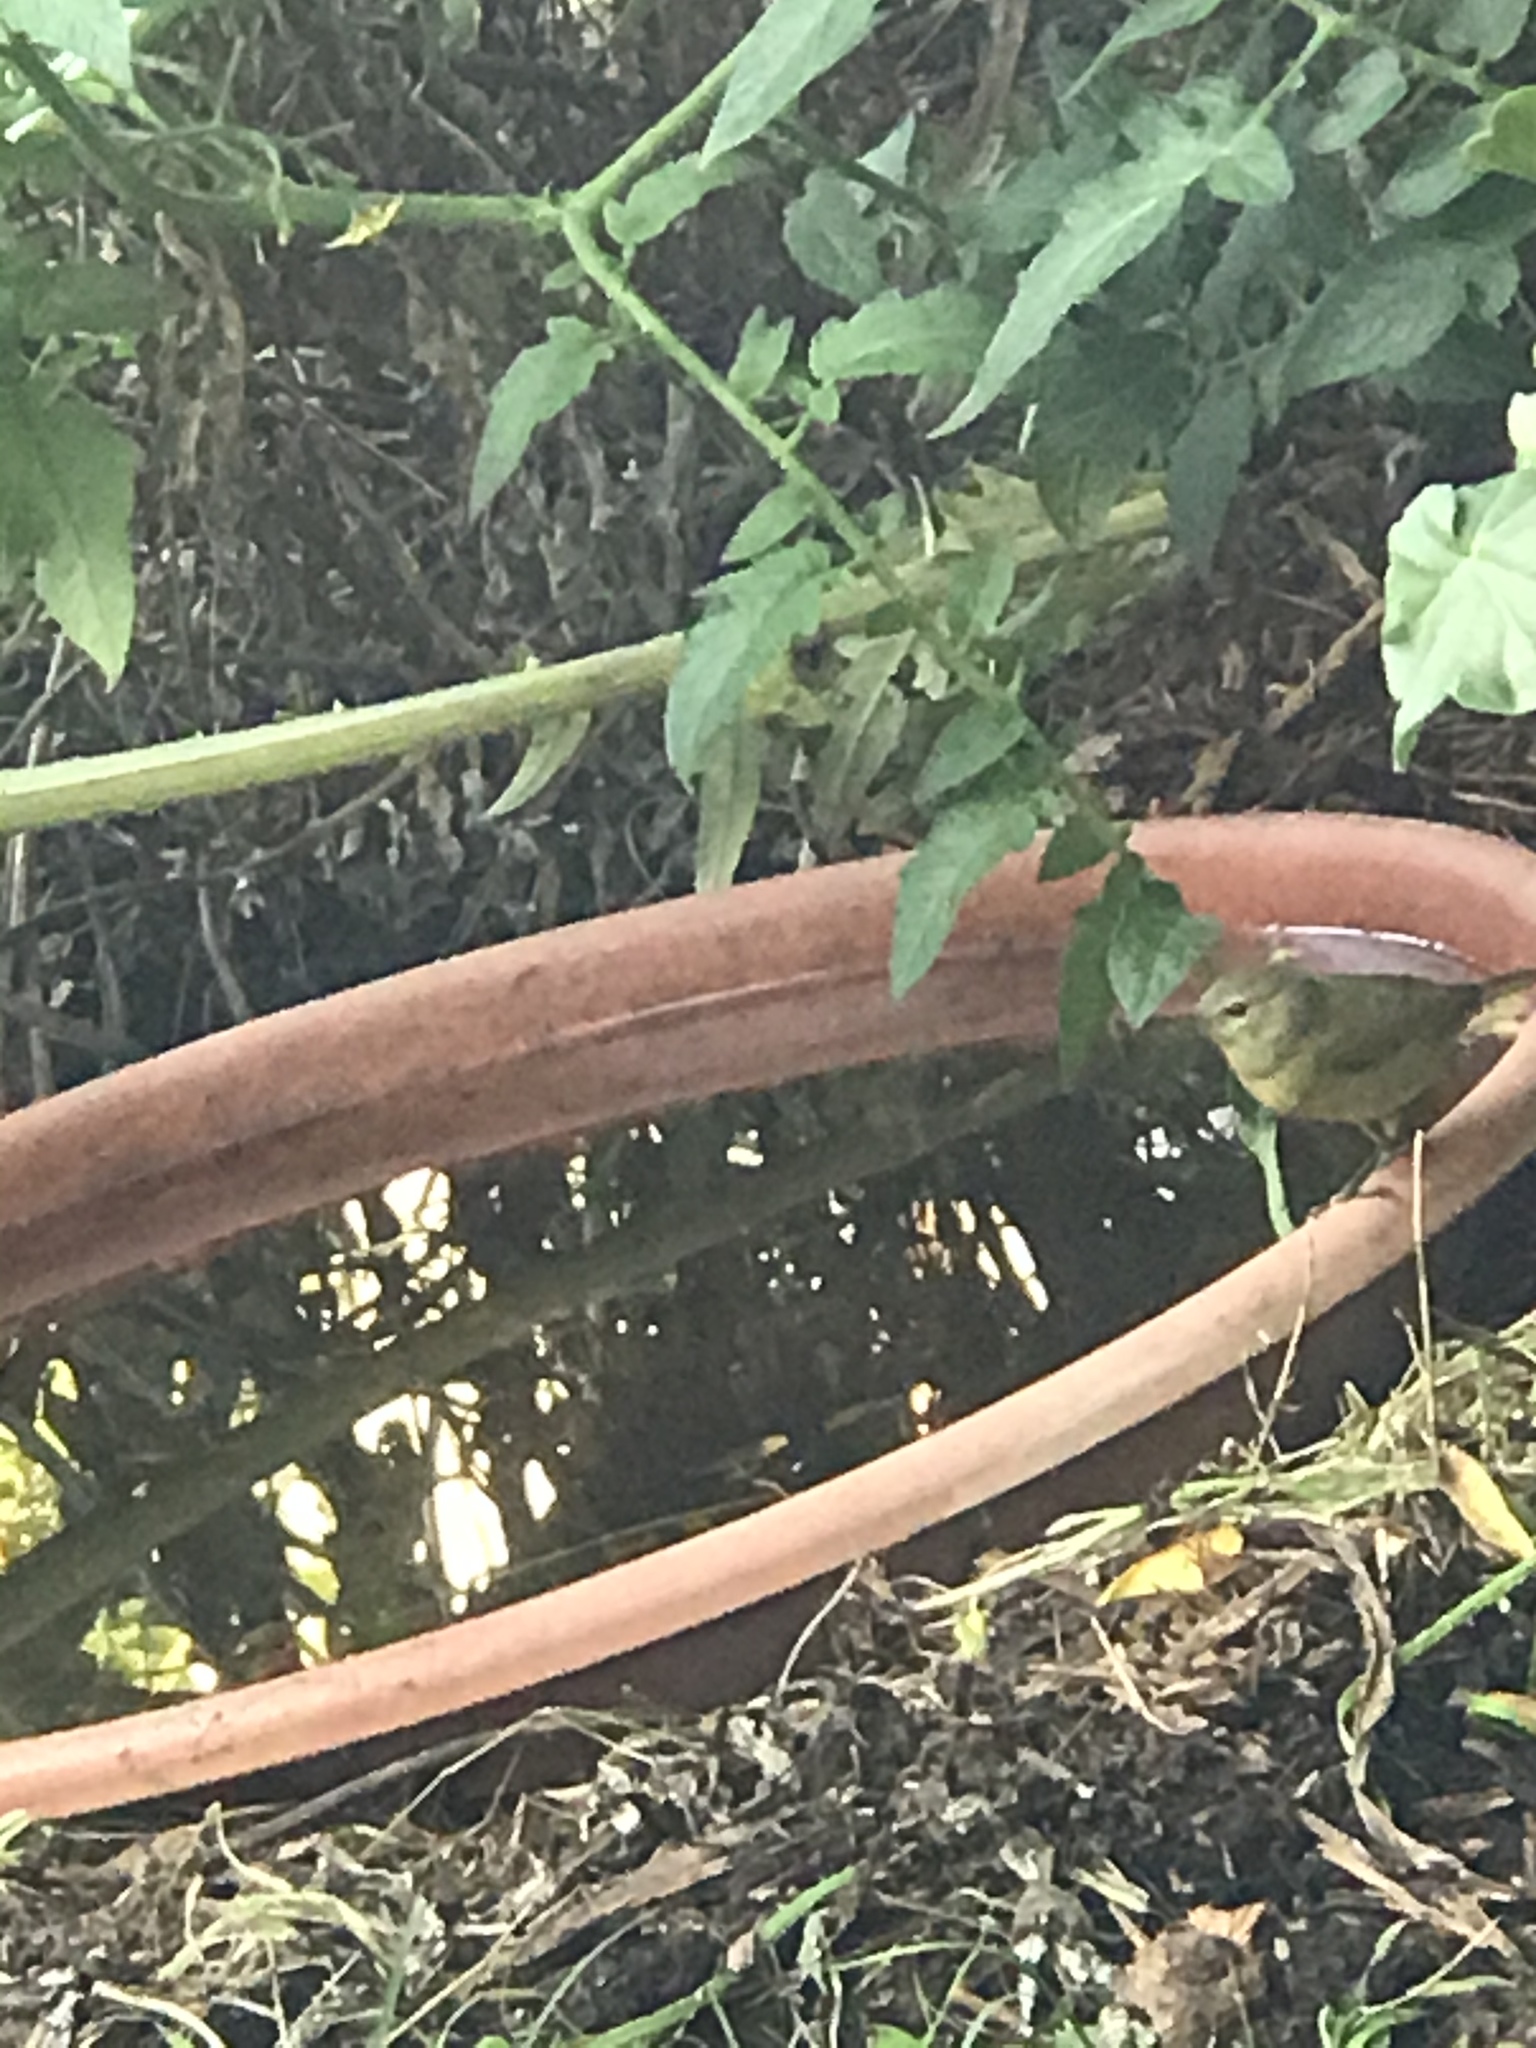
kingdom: Animalia
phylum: Chordata
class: Aves
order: Passeriformes
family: Parulidae
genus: Leiothlypis
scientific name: Leiothlypis celata
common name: Orange-crowned warbler
